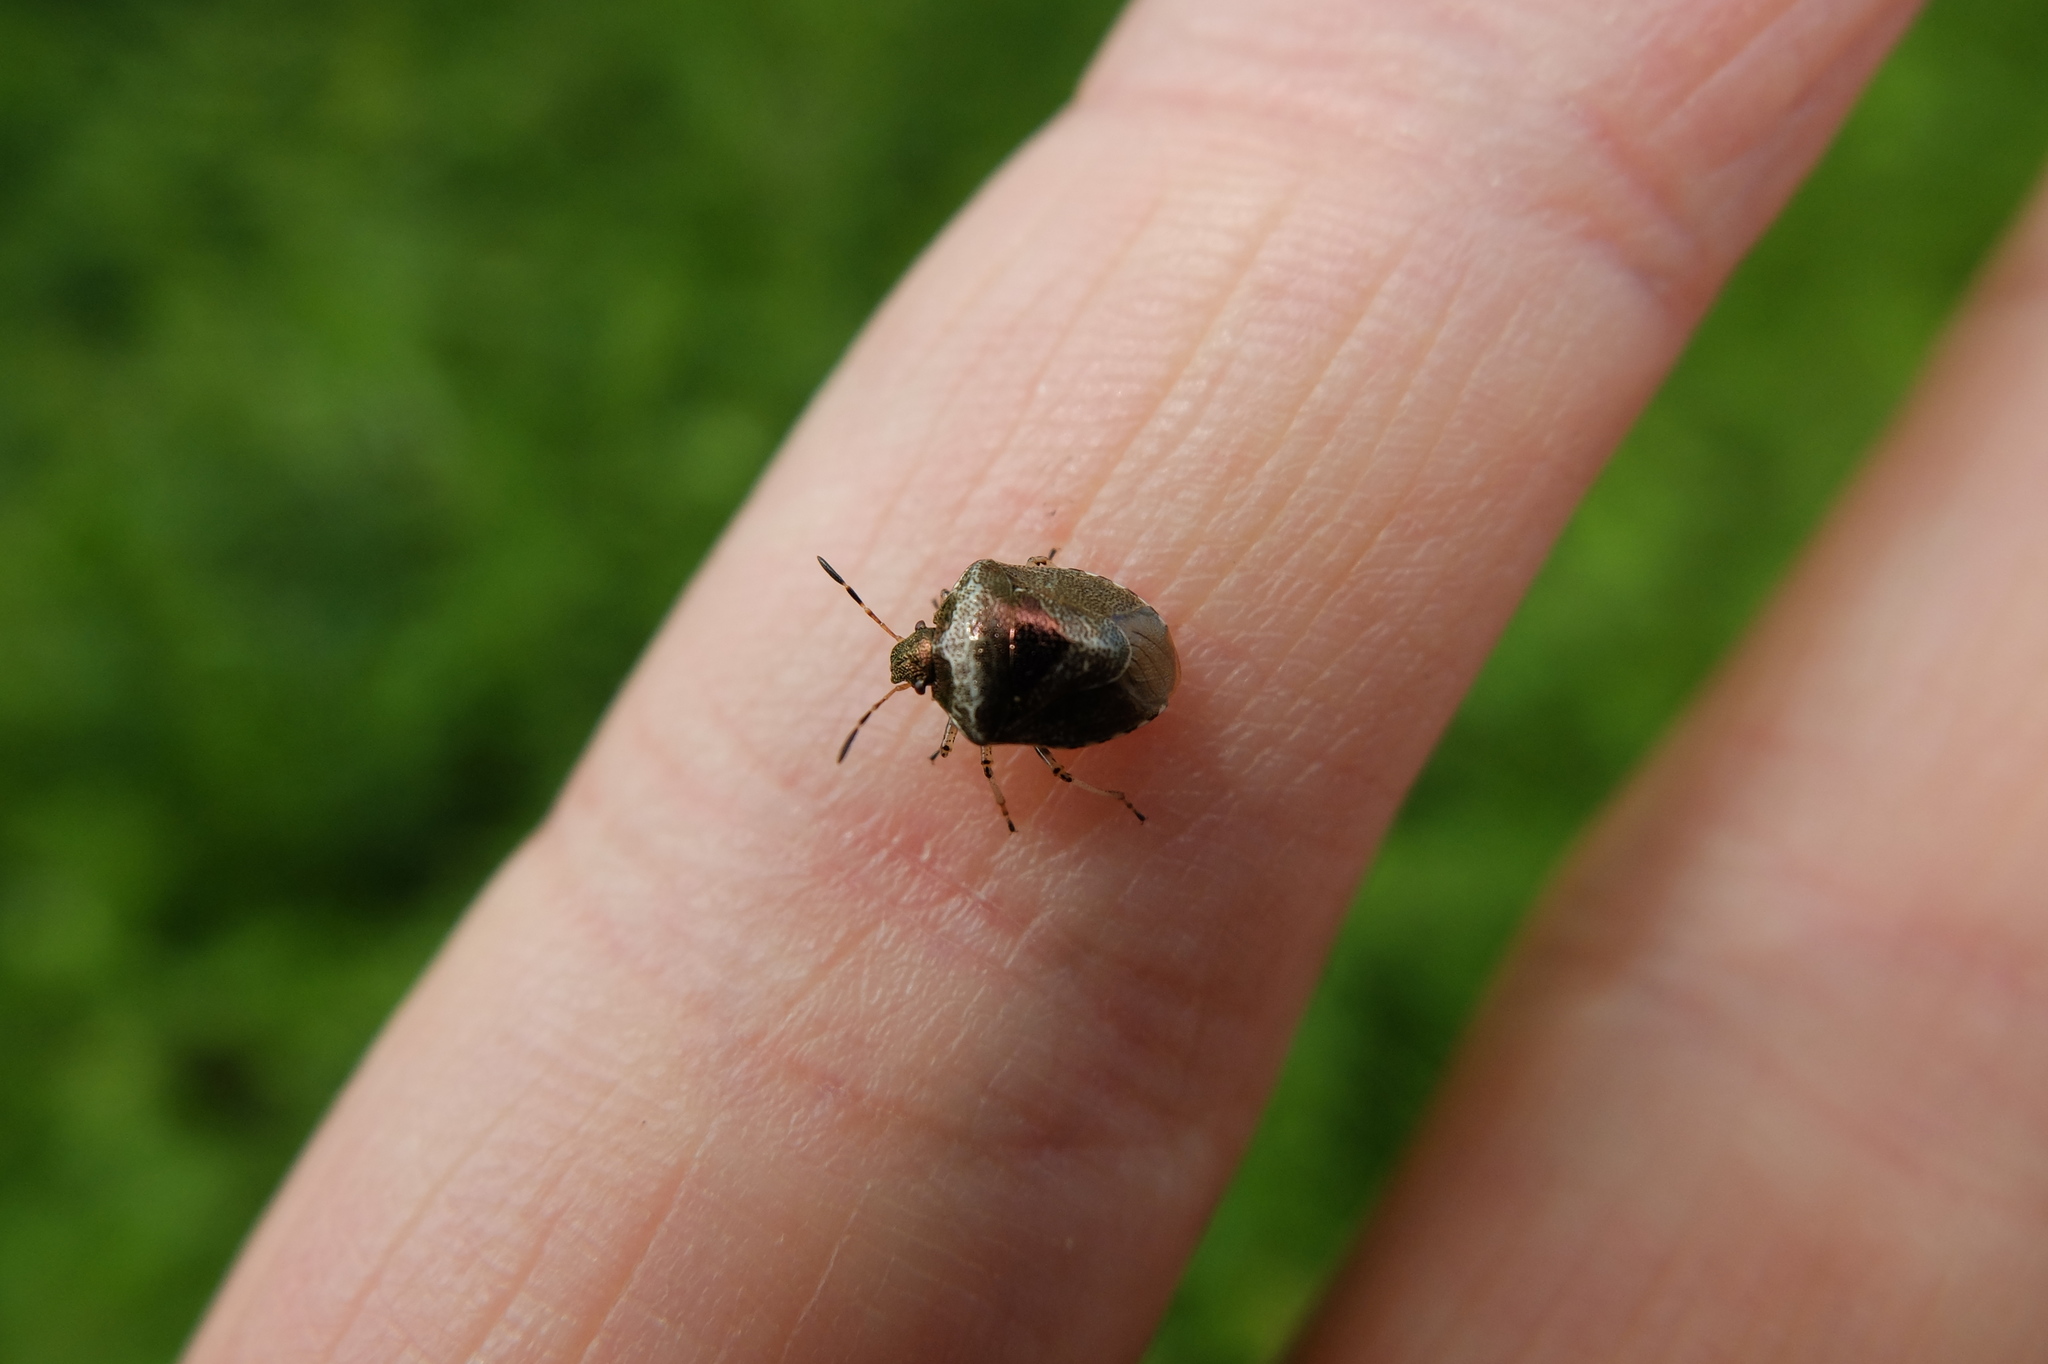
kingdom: Animalia
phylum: Arthropoda
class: Insecta
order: Hemiptera
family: Pentatomidae
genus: Eysarcoris
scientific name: Eysarcoris venustissimus
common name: Woundwort shieldbug
